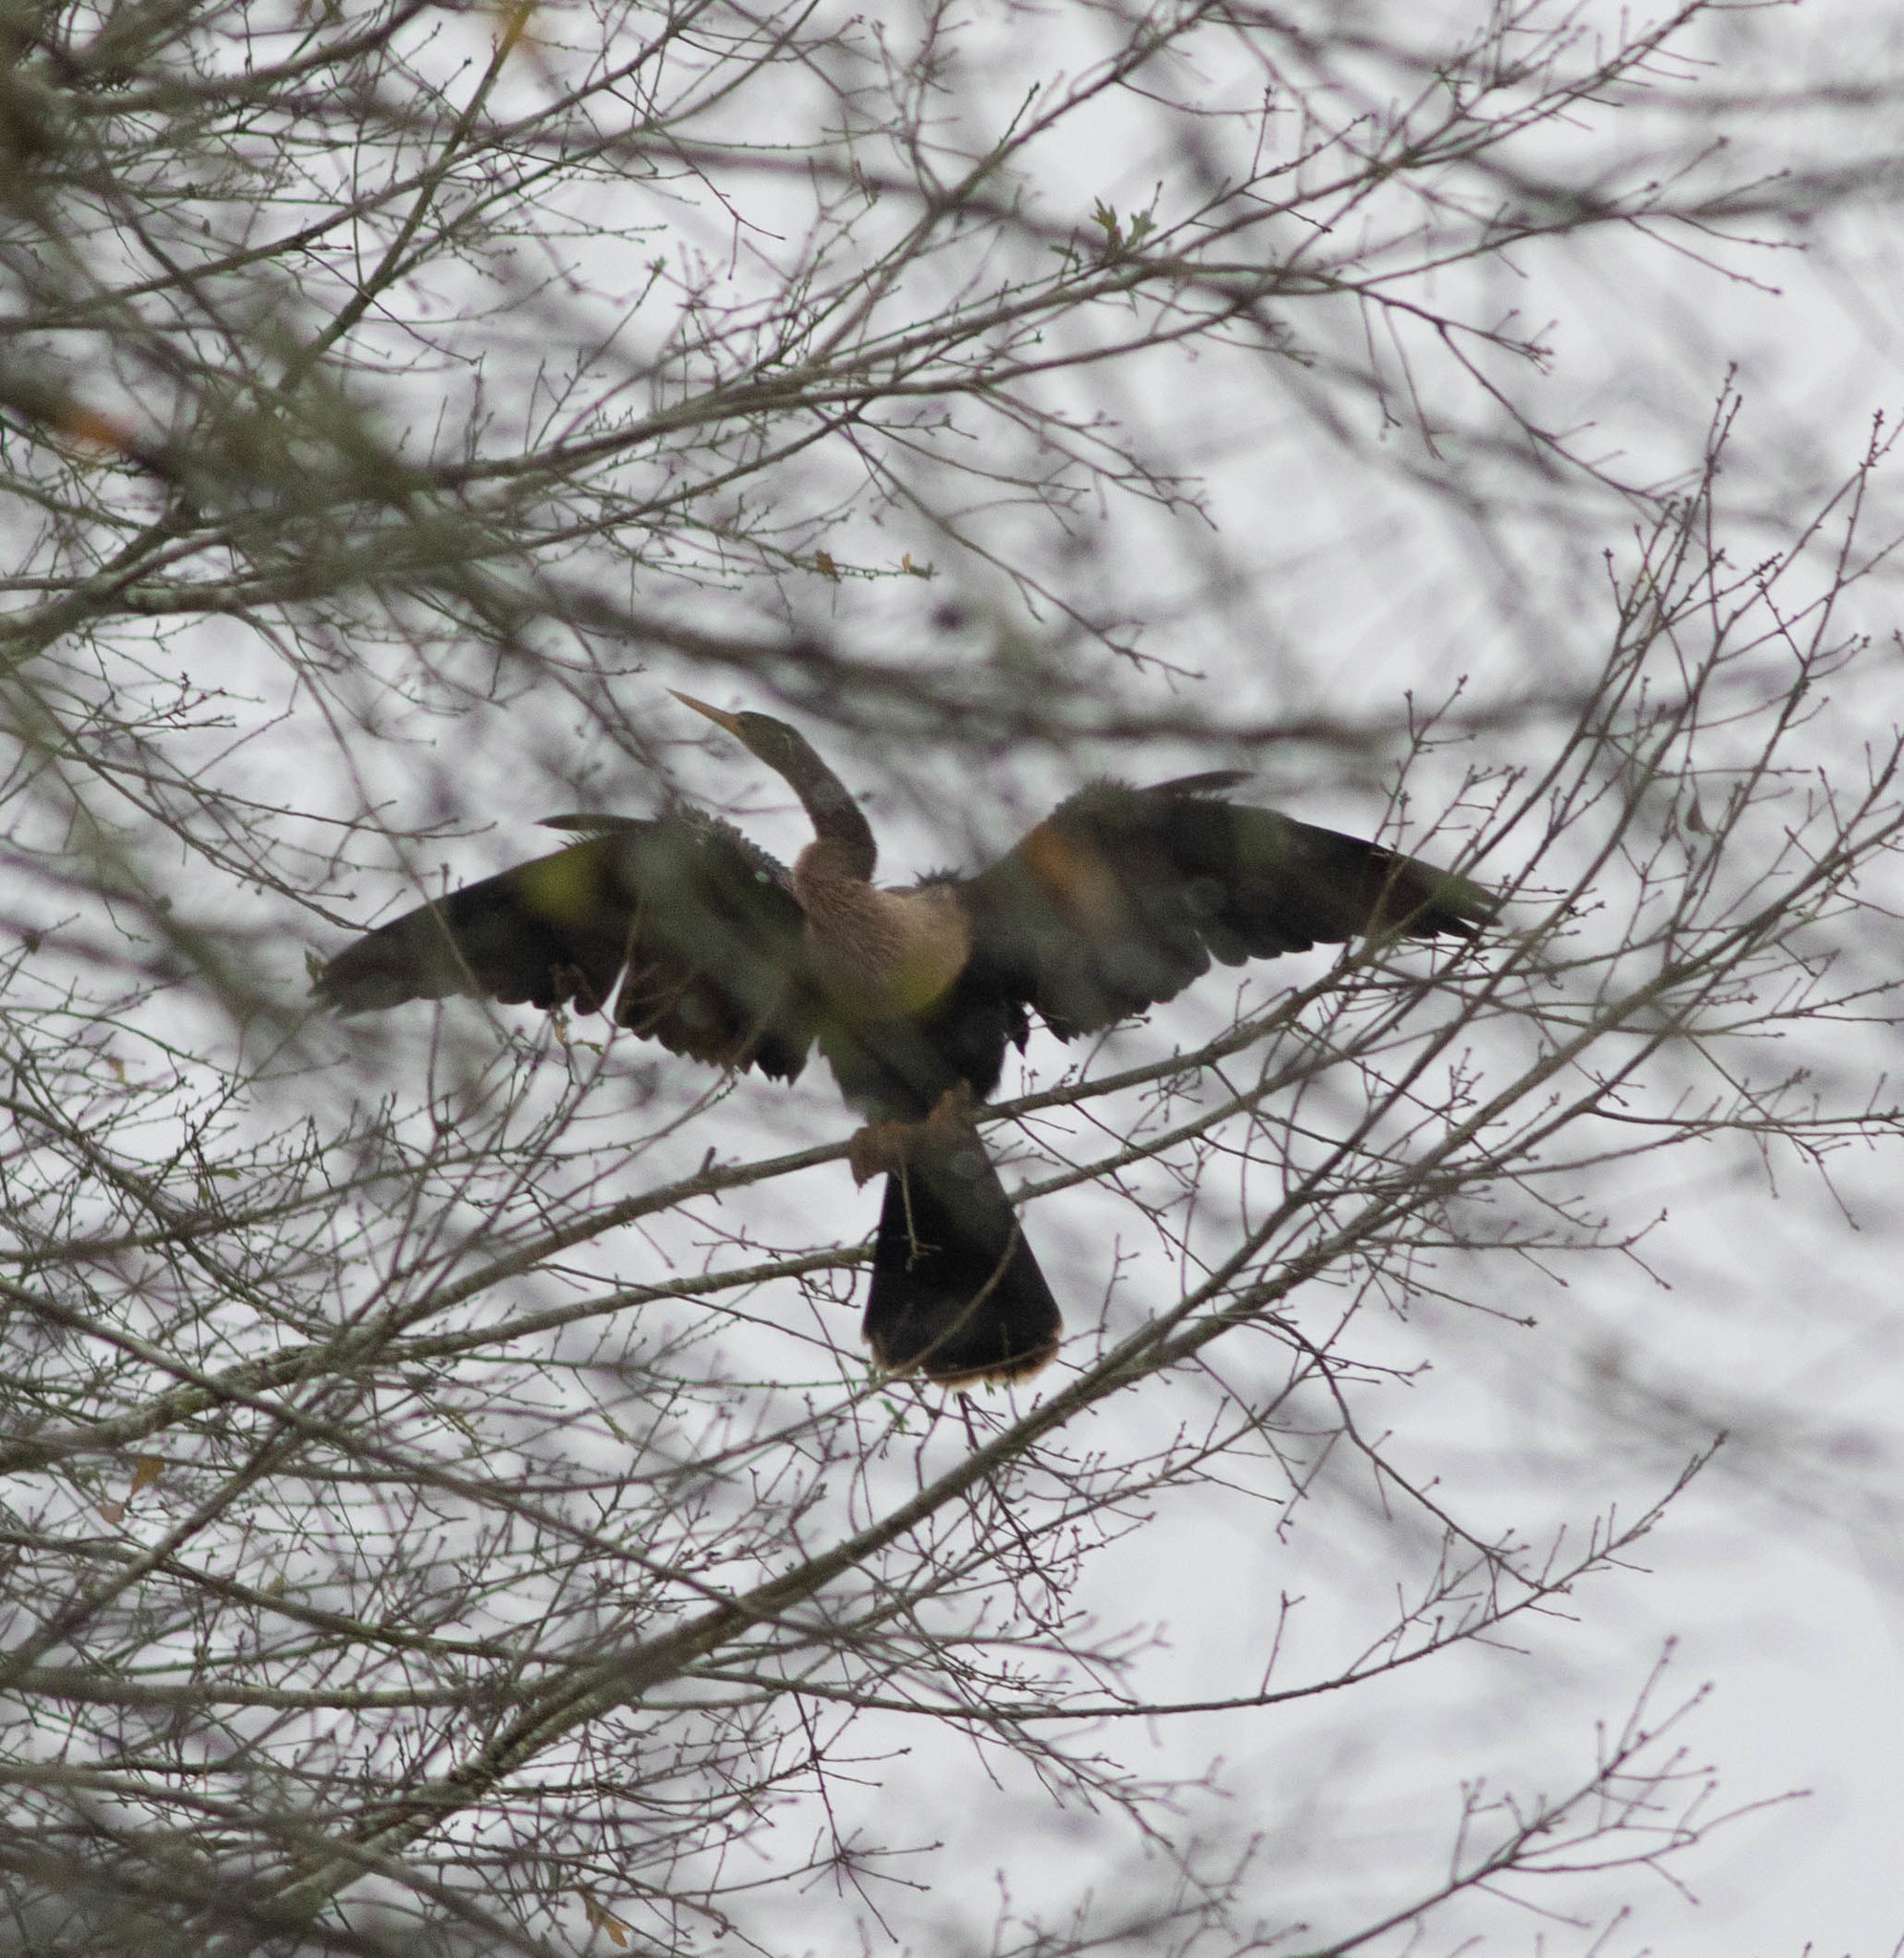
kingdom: Animalia
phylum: Chordata
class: Aves
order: Suliformes
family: Anhingidae
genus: Anhinga
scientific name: Anhinga anhinga
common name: Anhinga
